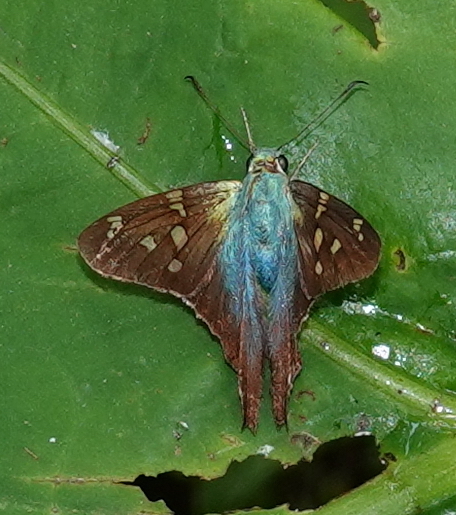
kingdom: Animalia
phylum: Arthropoda
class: Insecta
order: Lepidoptera
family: Hesperiidae
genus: Urbanus
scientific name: Urbanus viterboana
